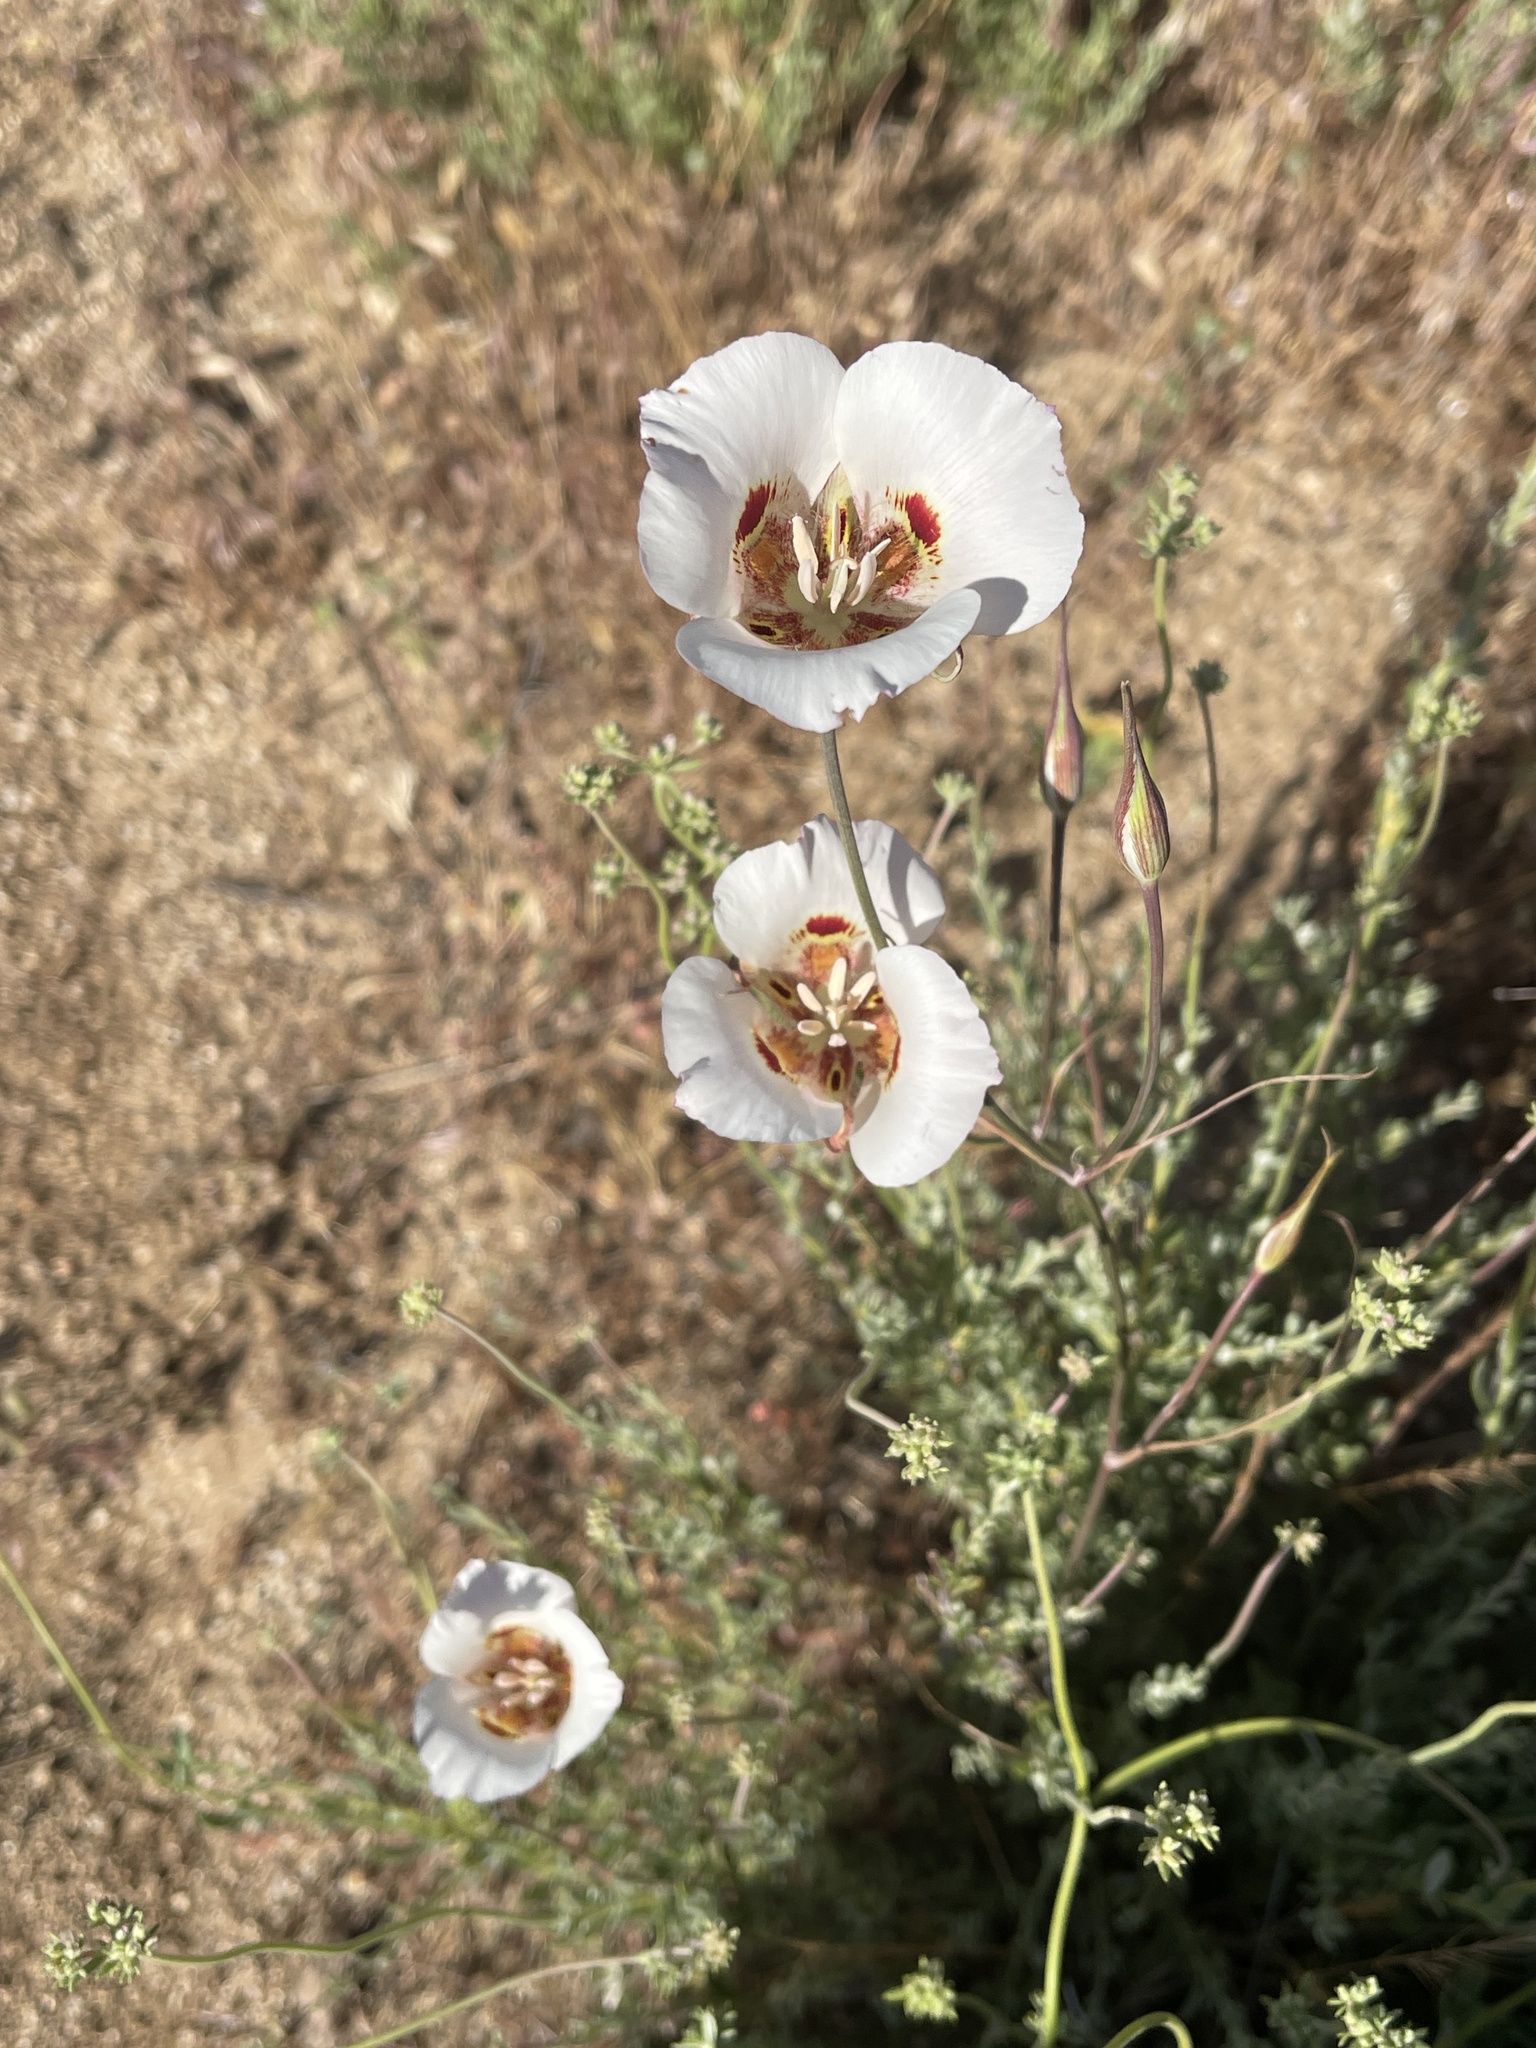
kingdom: Plantae
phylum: Tracheophyta
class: Liliopsida
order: Liliales
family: Liliaceae
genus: Calochortus
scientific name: Calochortus venustus
